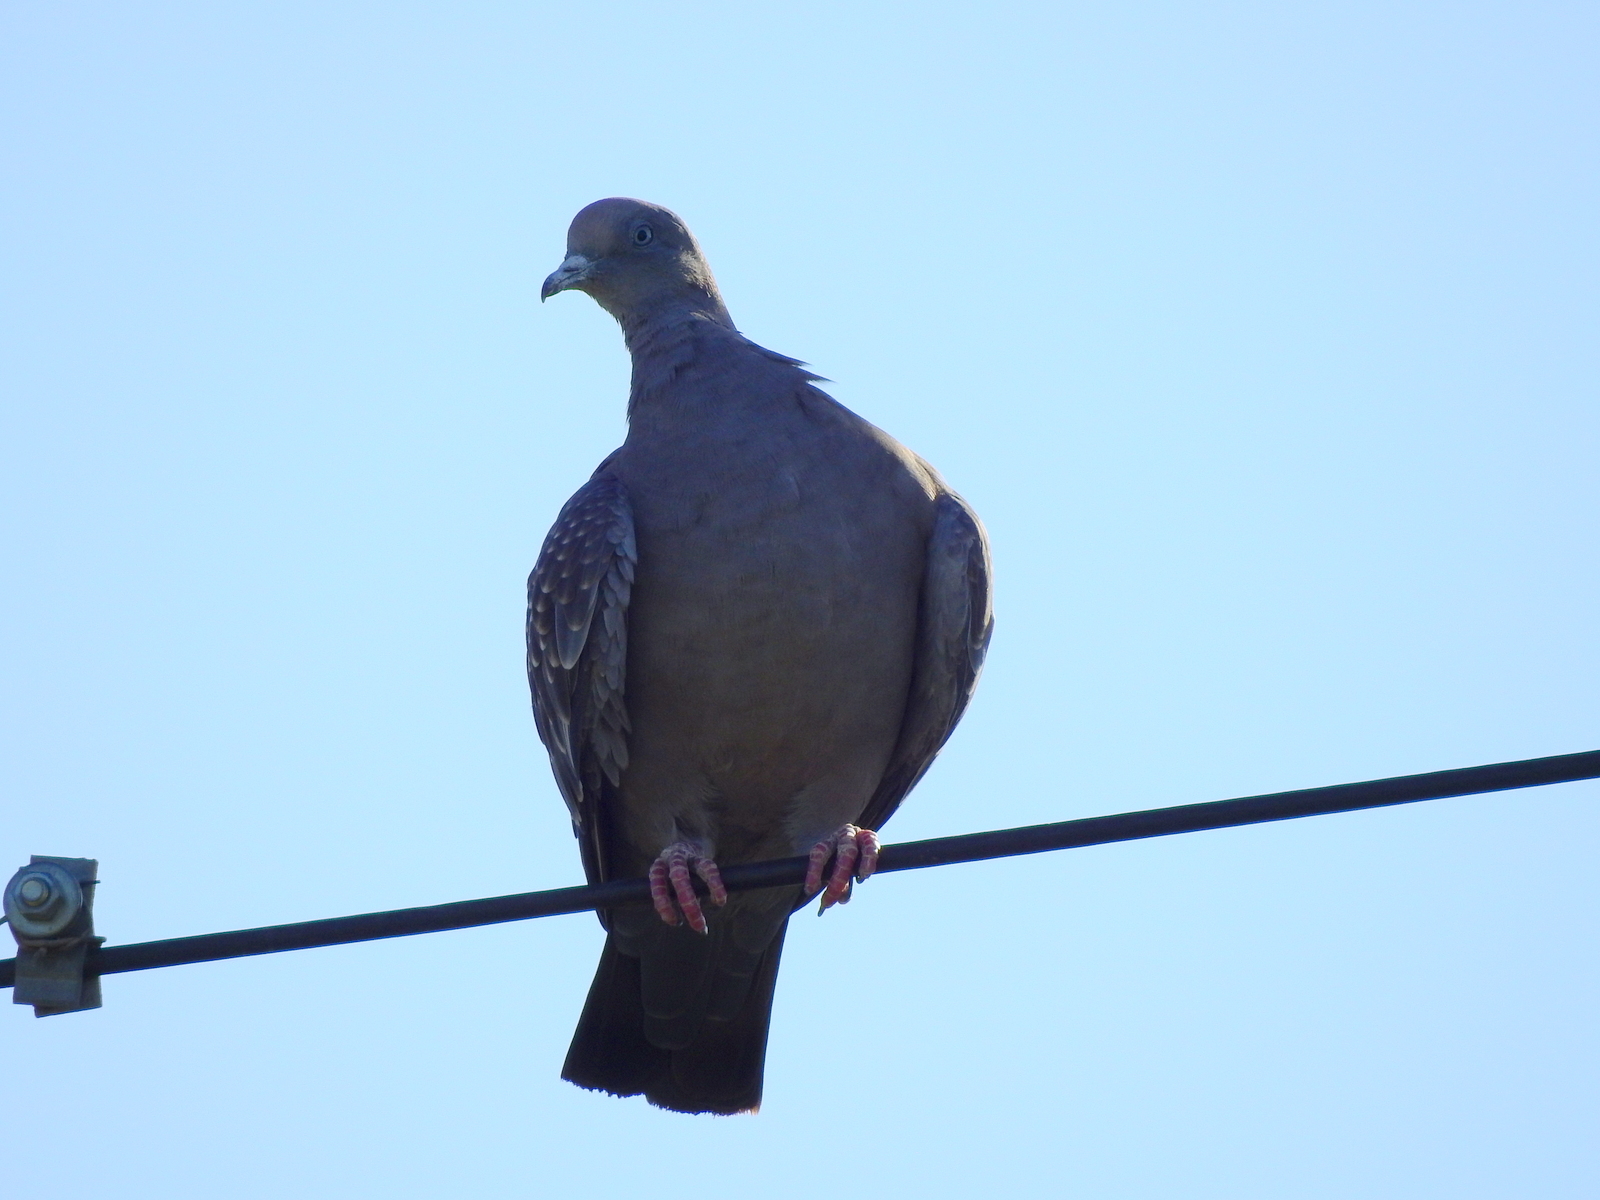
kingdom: Animalia
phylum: Chordata
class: Aves
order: Columbiformes
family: Columbidae
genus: Patagioenas
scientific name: Patagioenas maculosa
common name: Spot-winged pigeon
